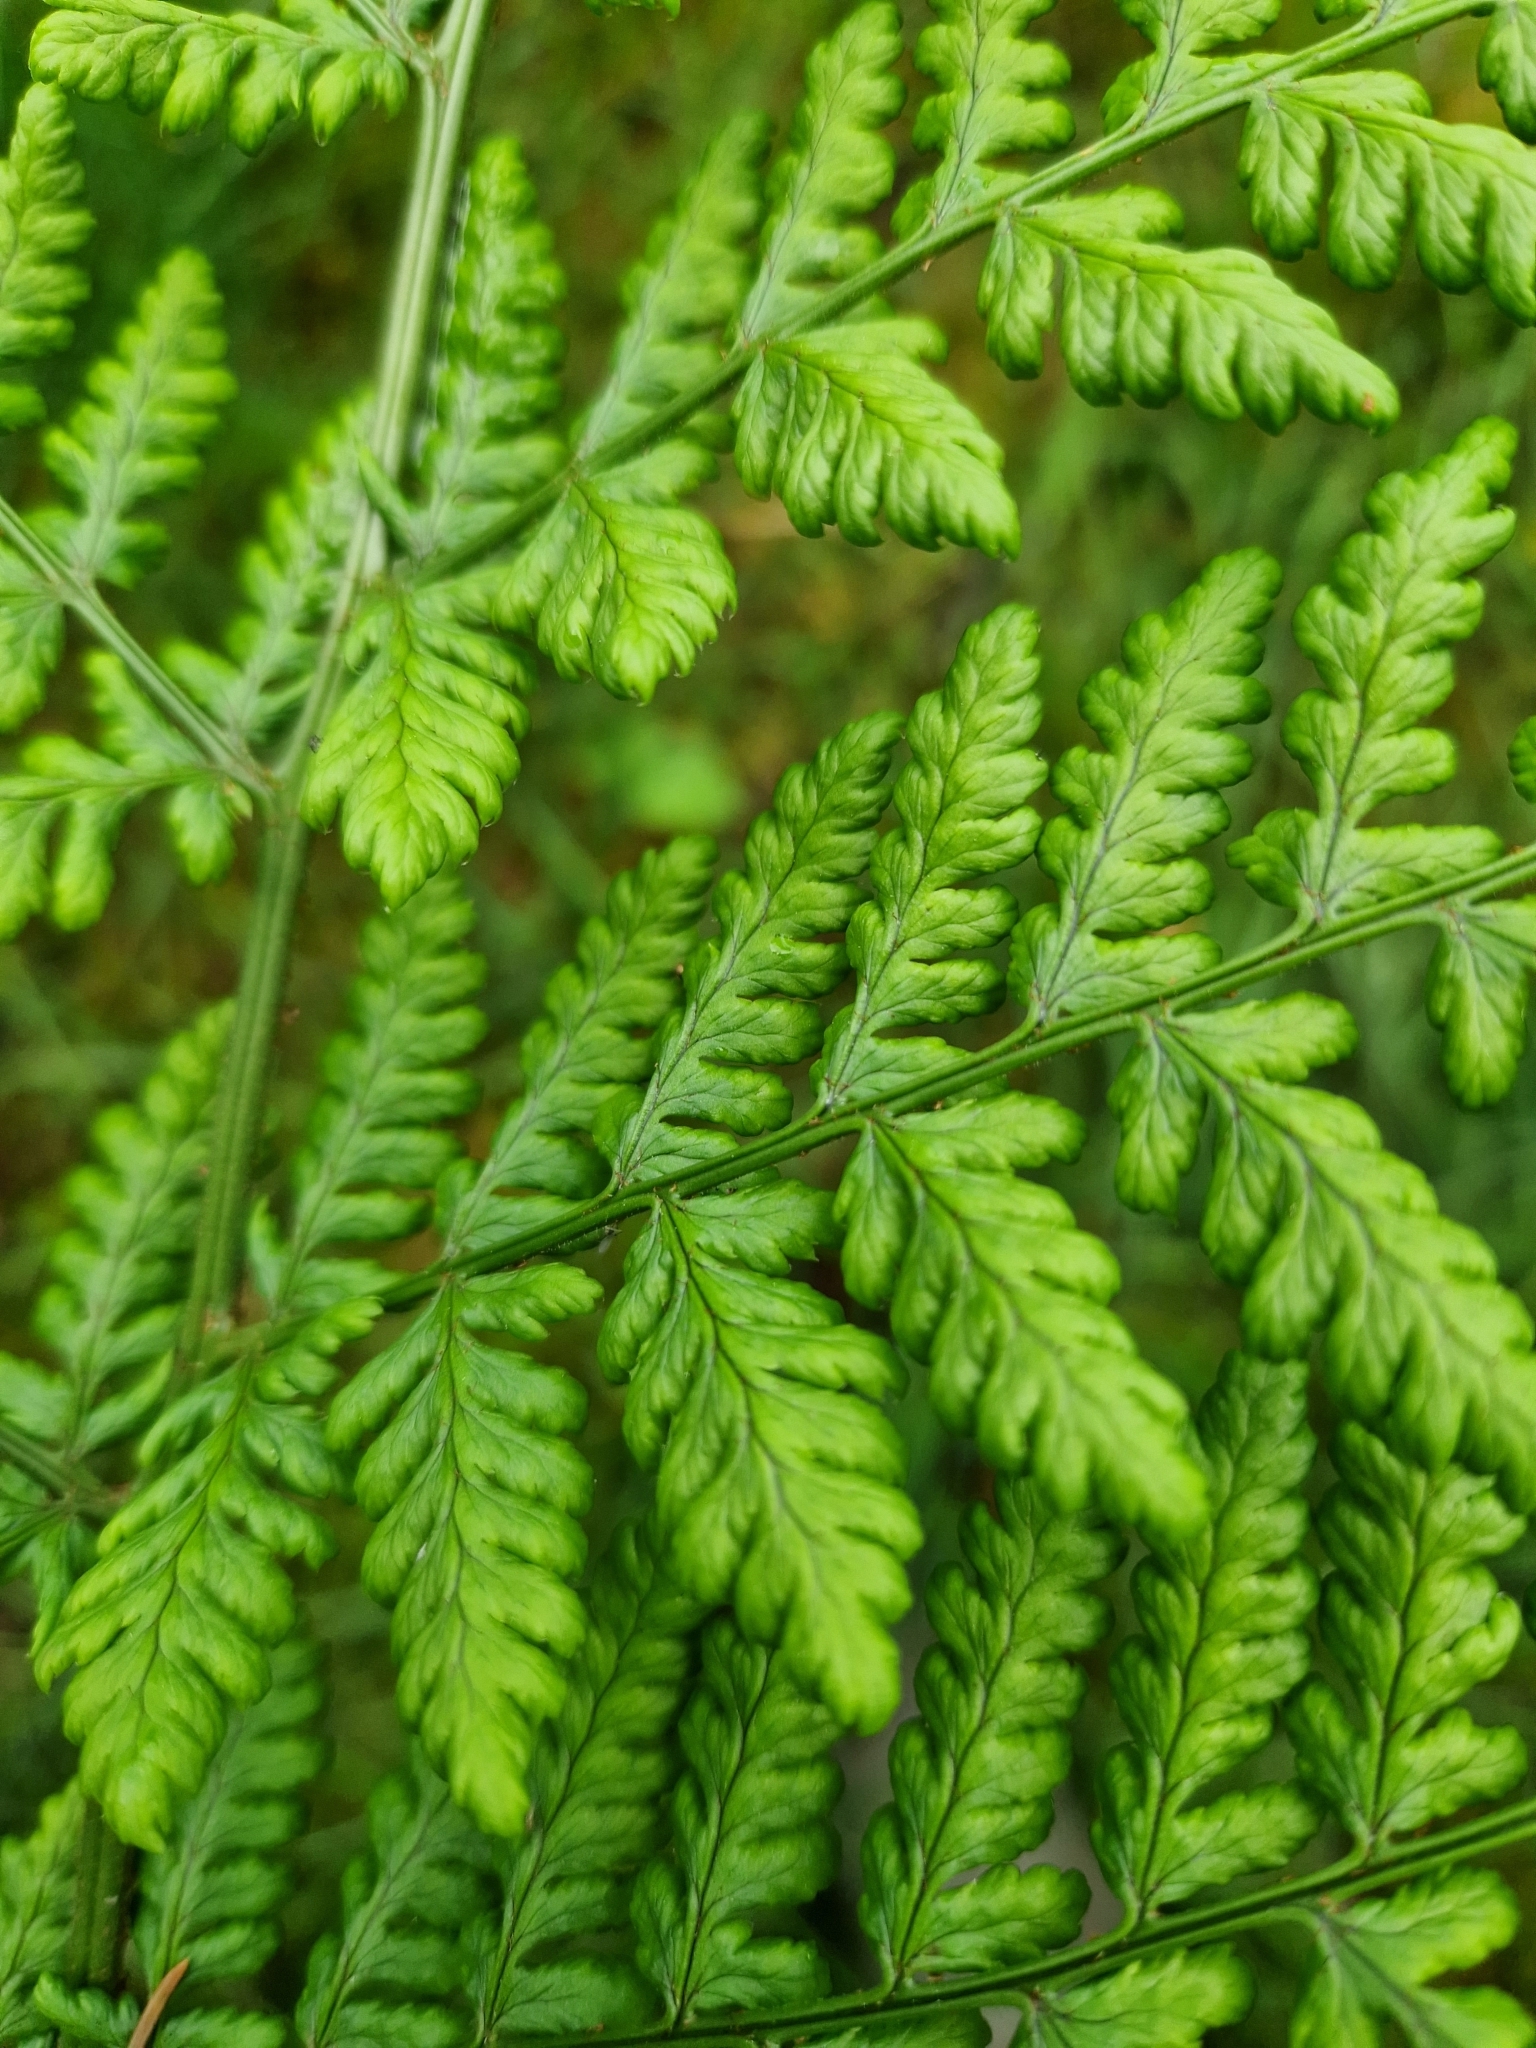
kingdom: Plantae
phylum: Tracheophyta
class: Polypodiopsida
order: Polypodiales
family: Dryopteridaceae
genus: Dryopteris
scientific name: Dryopteris dilatata
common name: Broad buckler-fern
